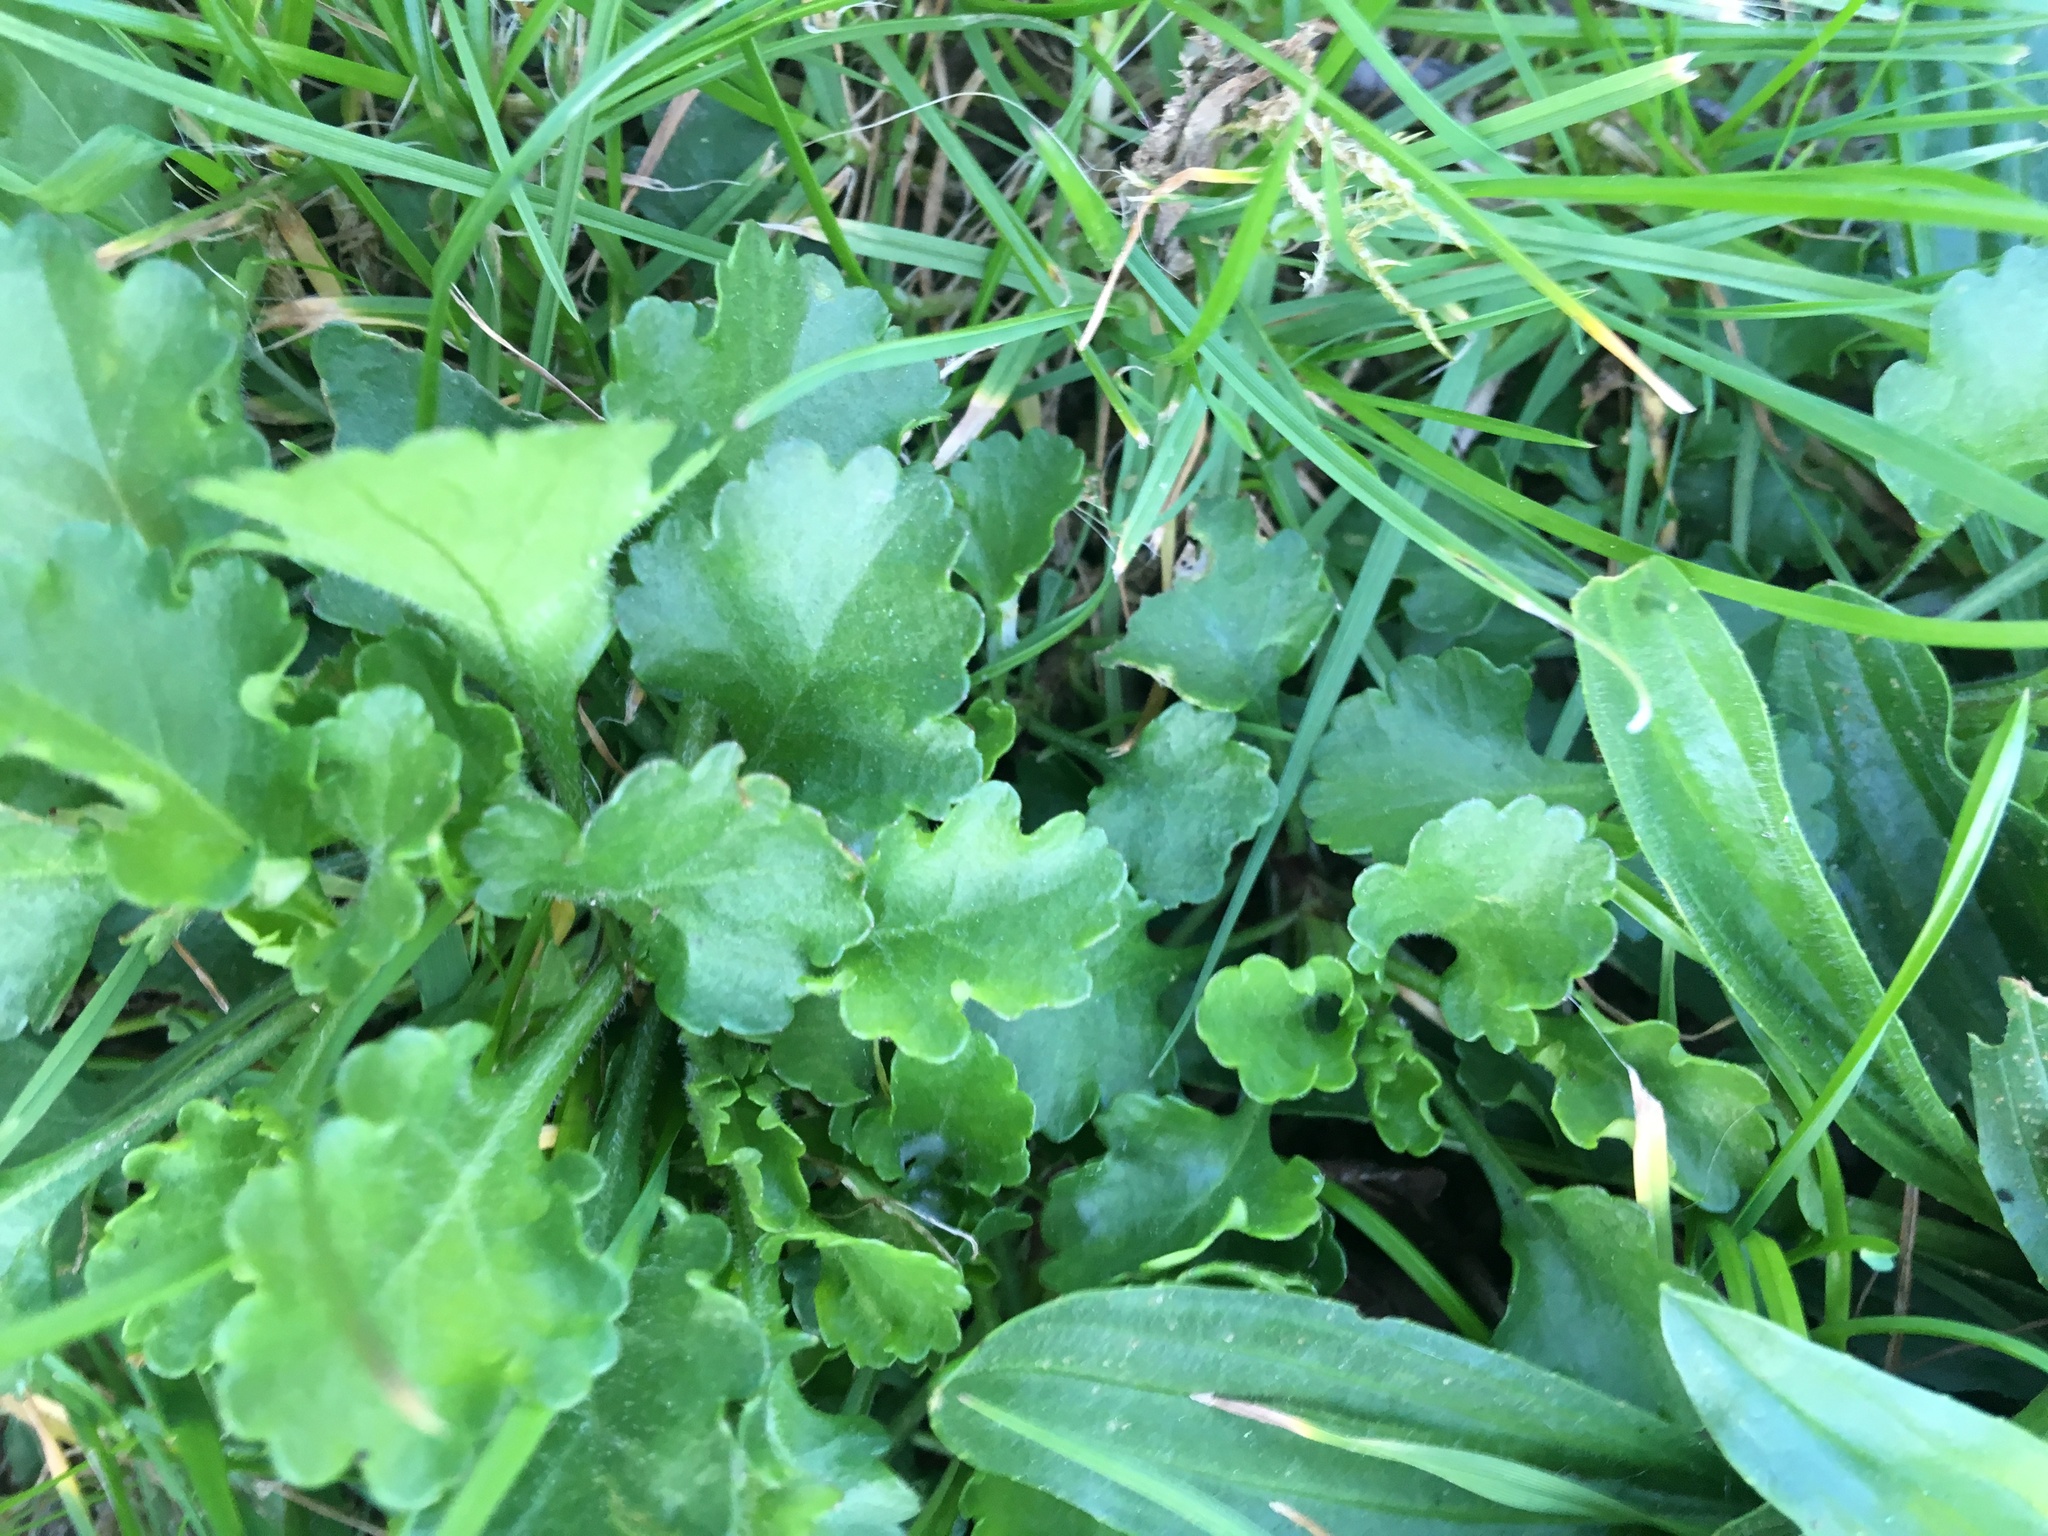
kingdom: Plantae
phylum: Tracheophyta
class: Magnoliopsida
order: Asterales
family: Asteraceae
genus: Leucanthemum
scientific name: Leucanthemum vulgare
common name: Oxeye daisy
